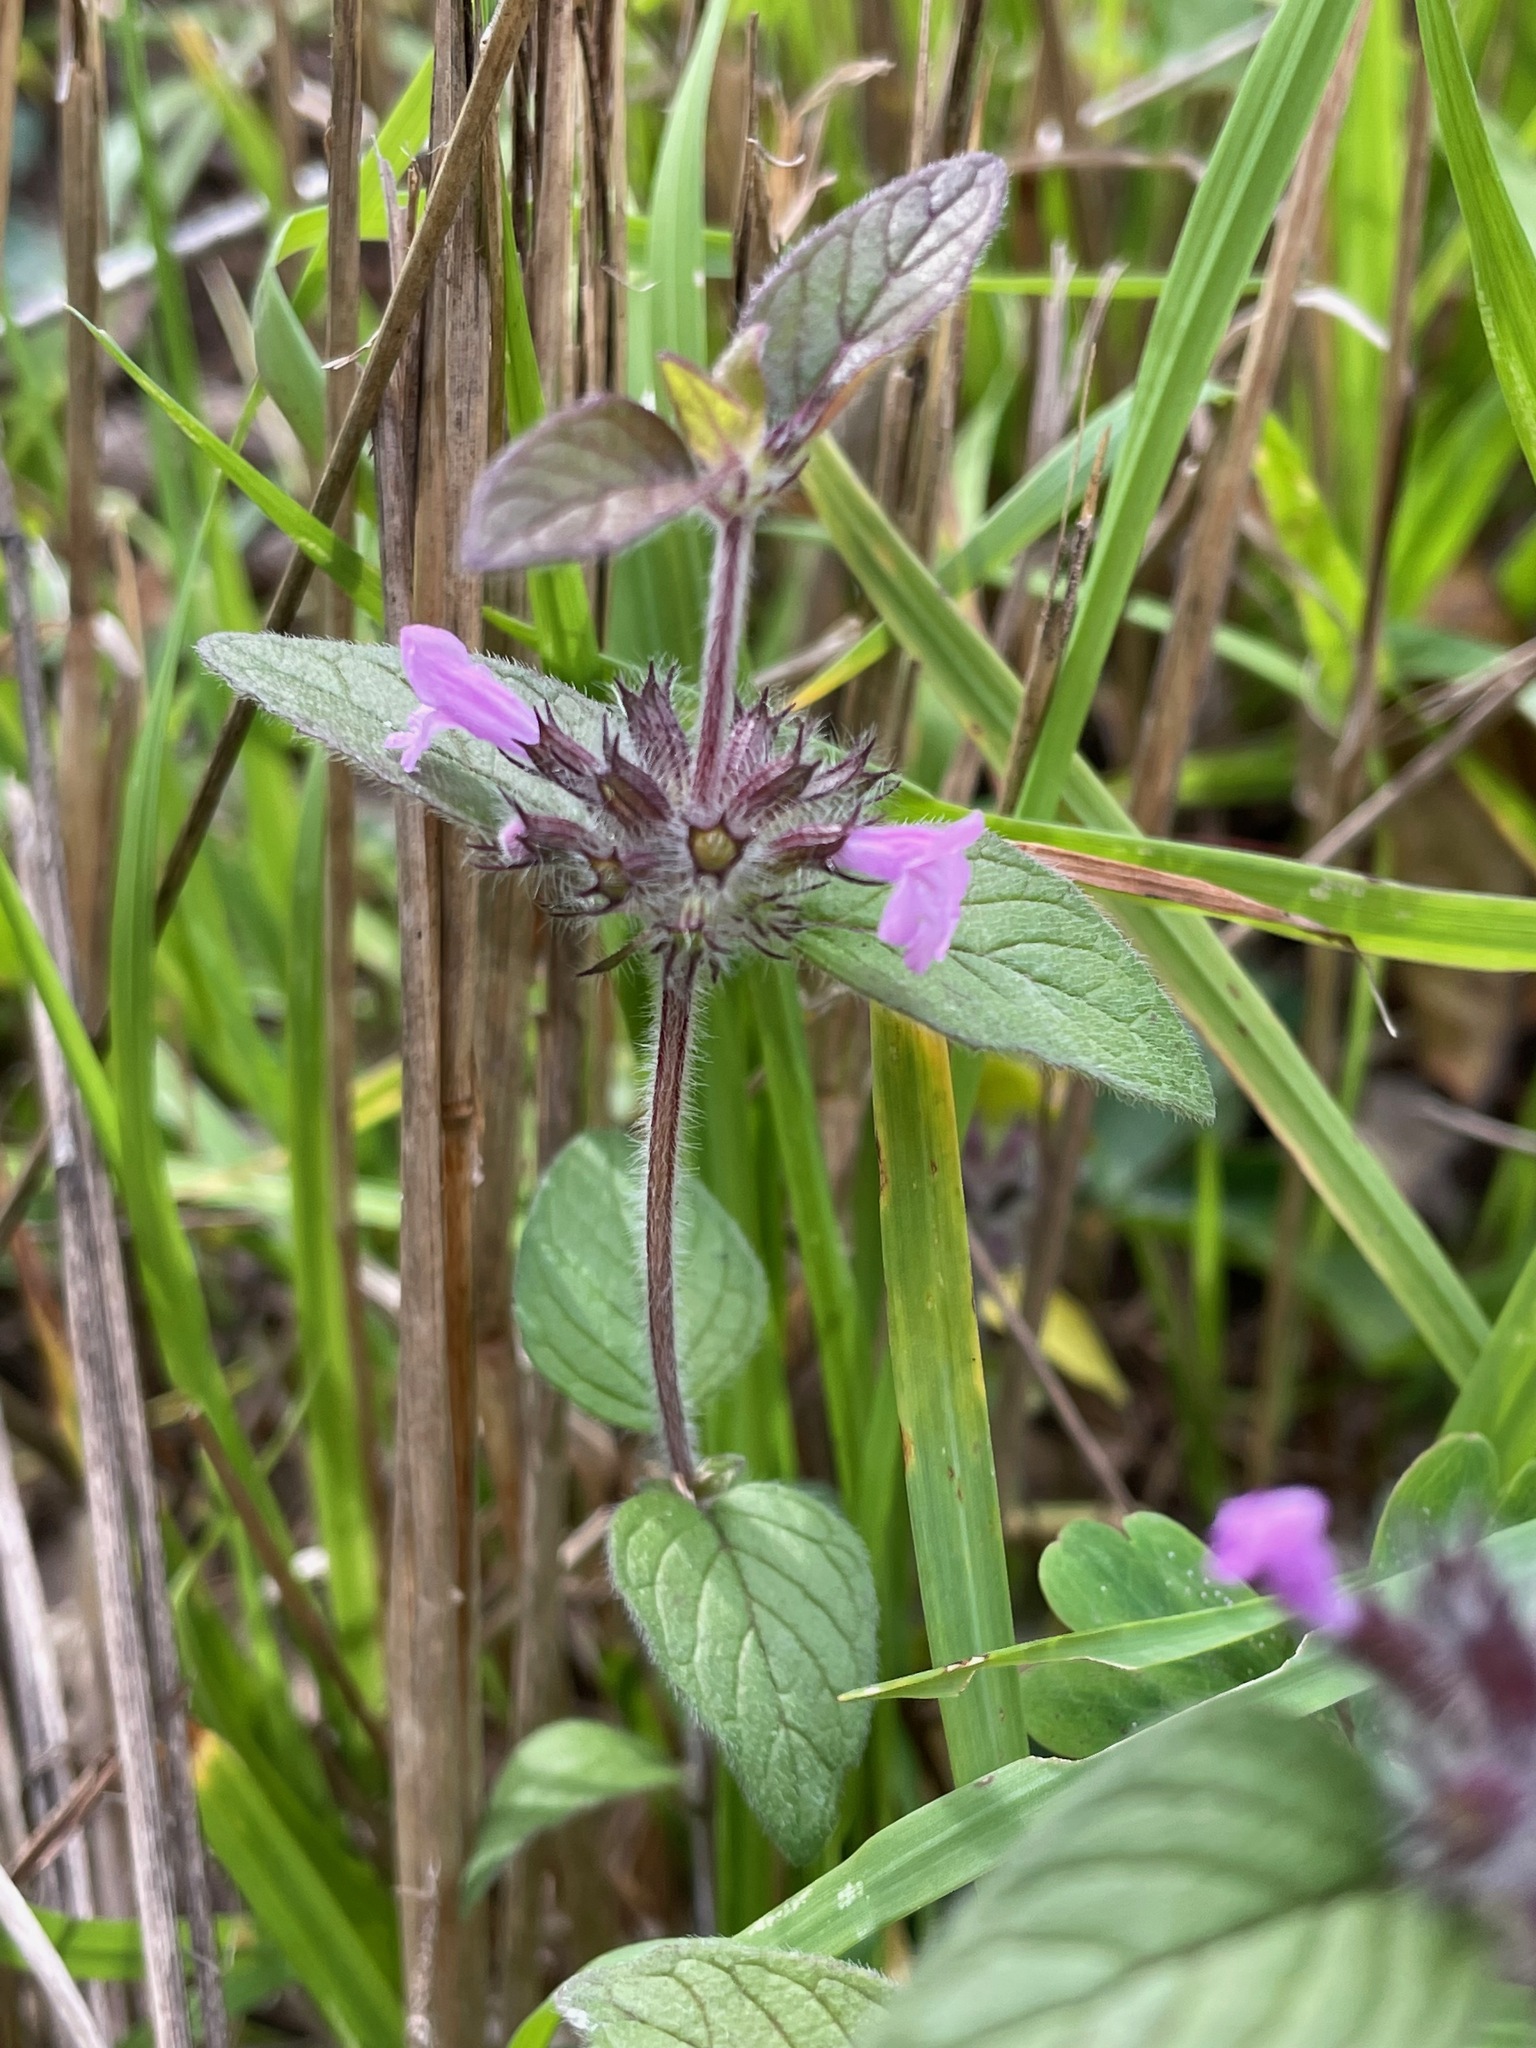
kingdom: Plantae
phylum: Tracheophyta
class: Magnoliopsida
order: Lamiales
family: Lamiaceae
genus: Clinopodium
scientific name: Clinopodium vulgare
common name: Wild basil
